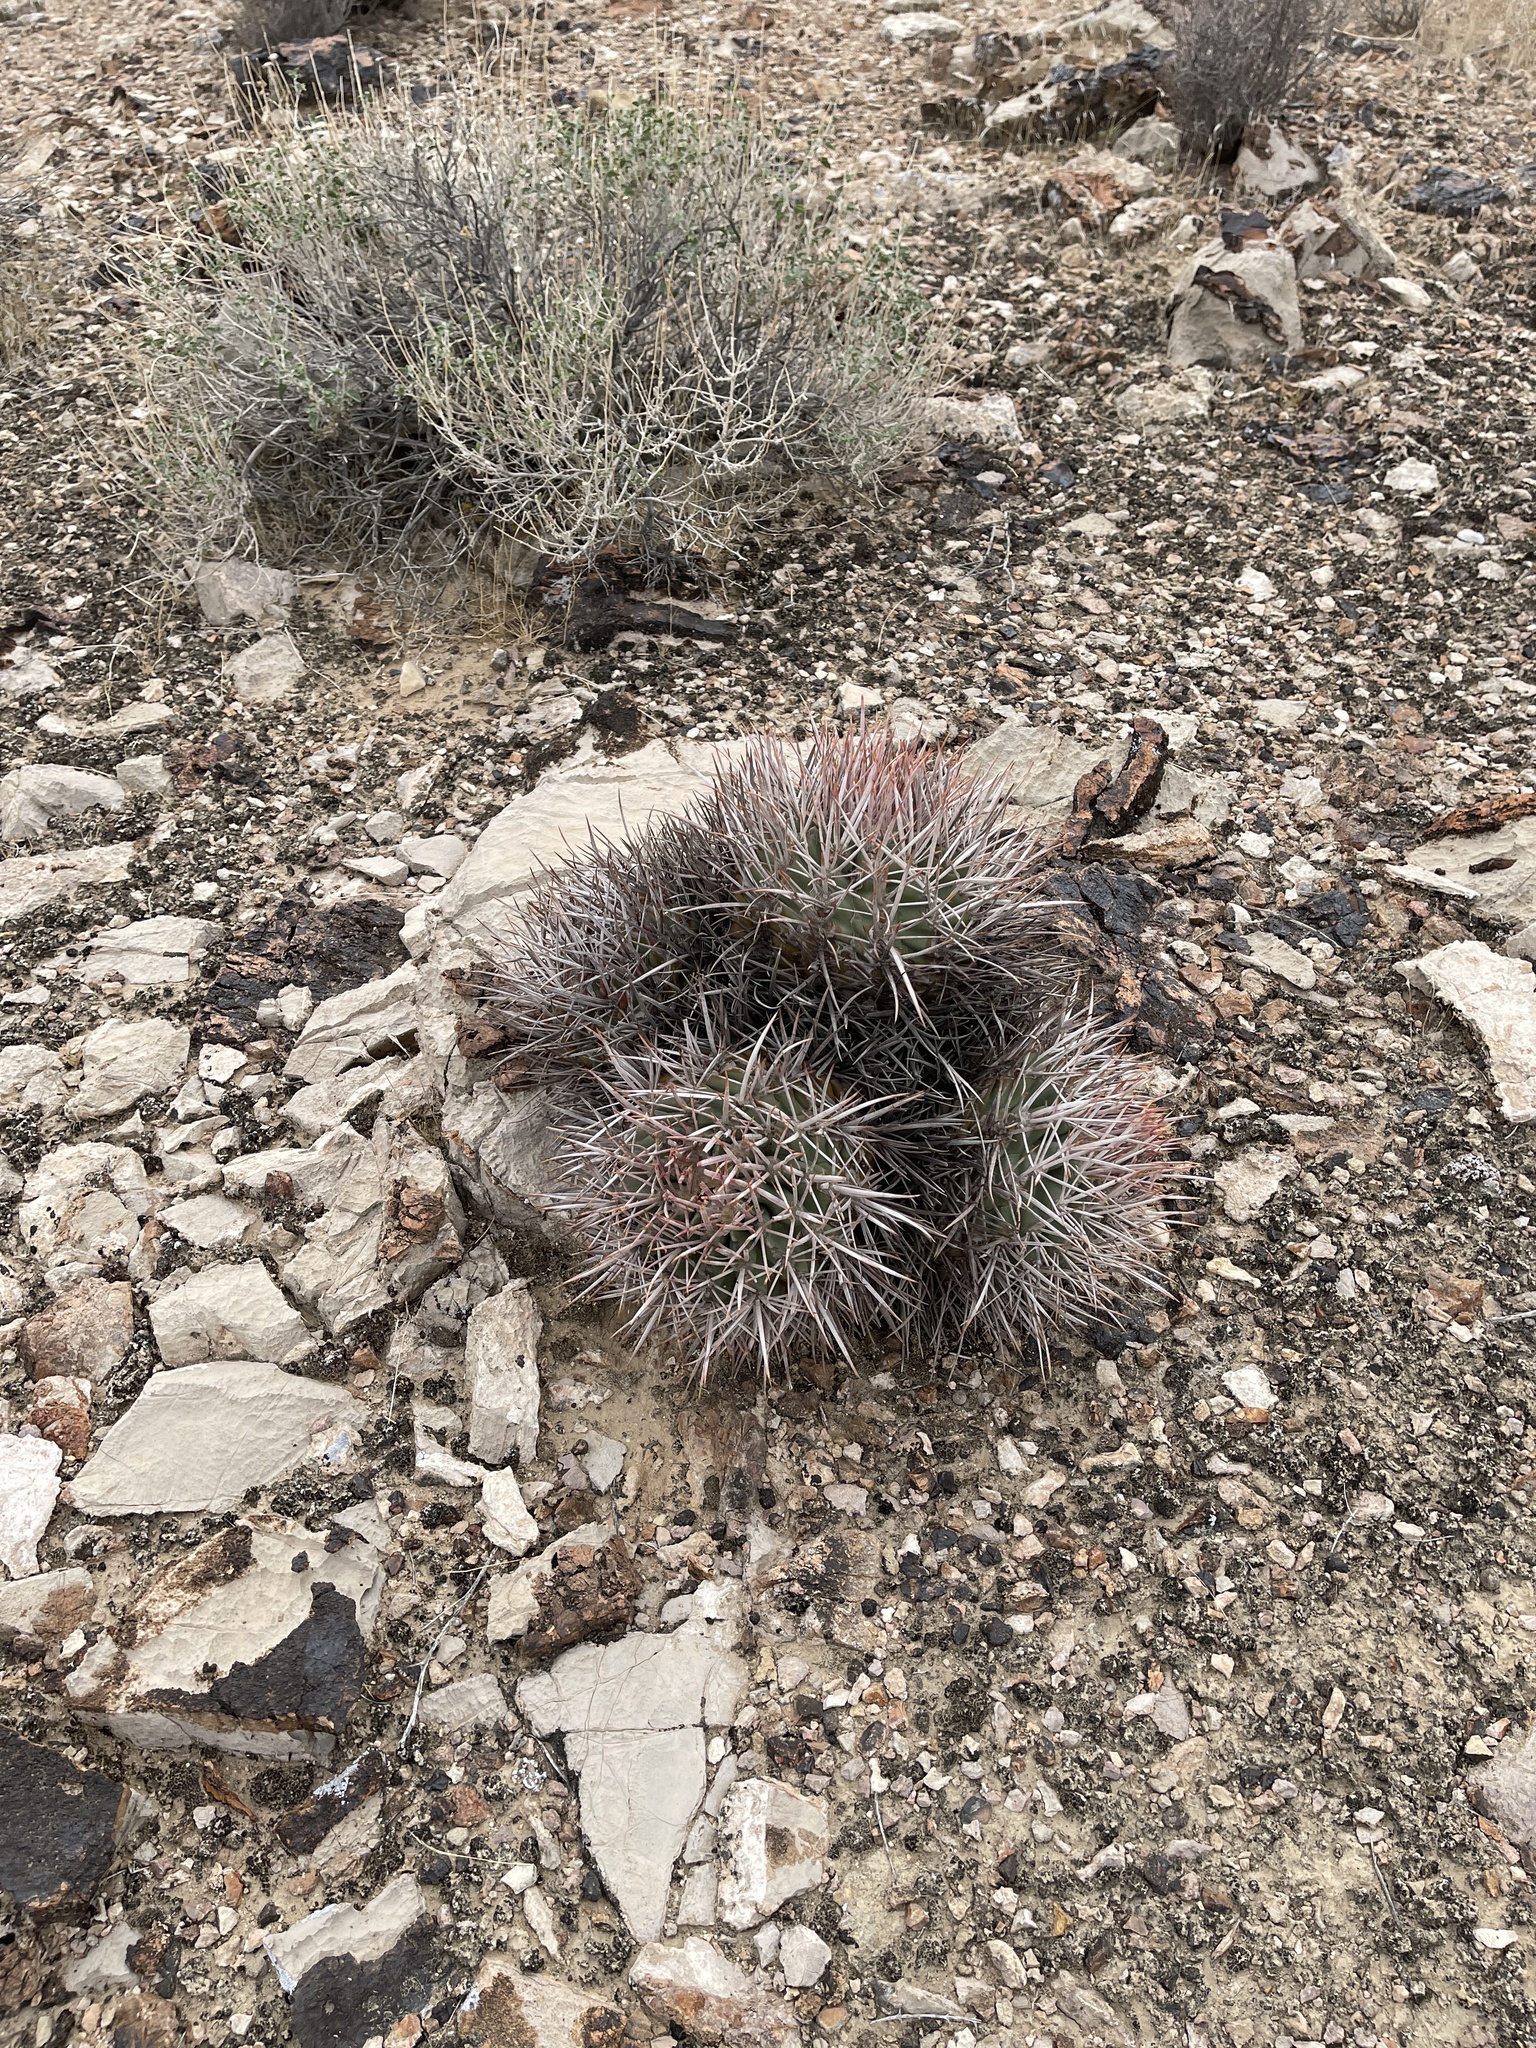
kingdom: Plantae
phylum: Tracheophyta
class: Magnoliopsida
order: Caryophyllales
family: Cactaceae
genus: Echinocactus
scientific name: Echinocactus polycephalus
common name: Cottontop cactus
